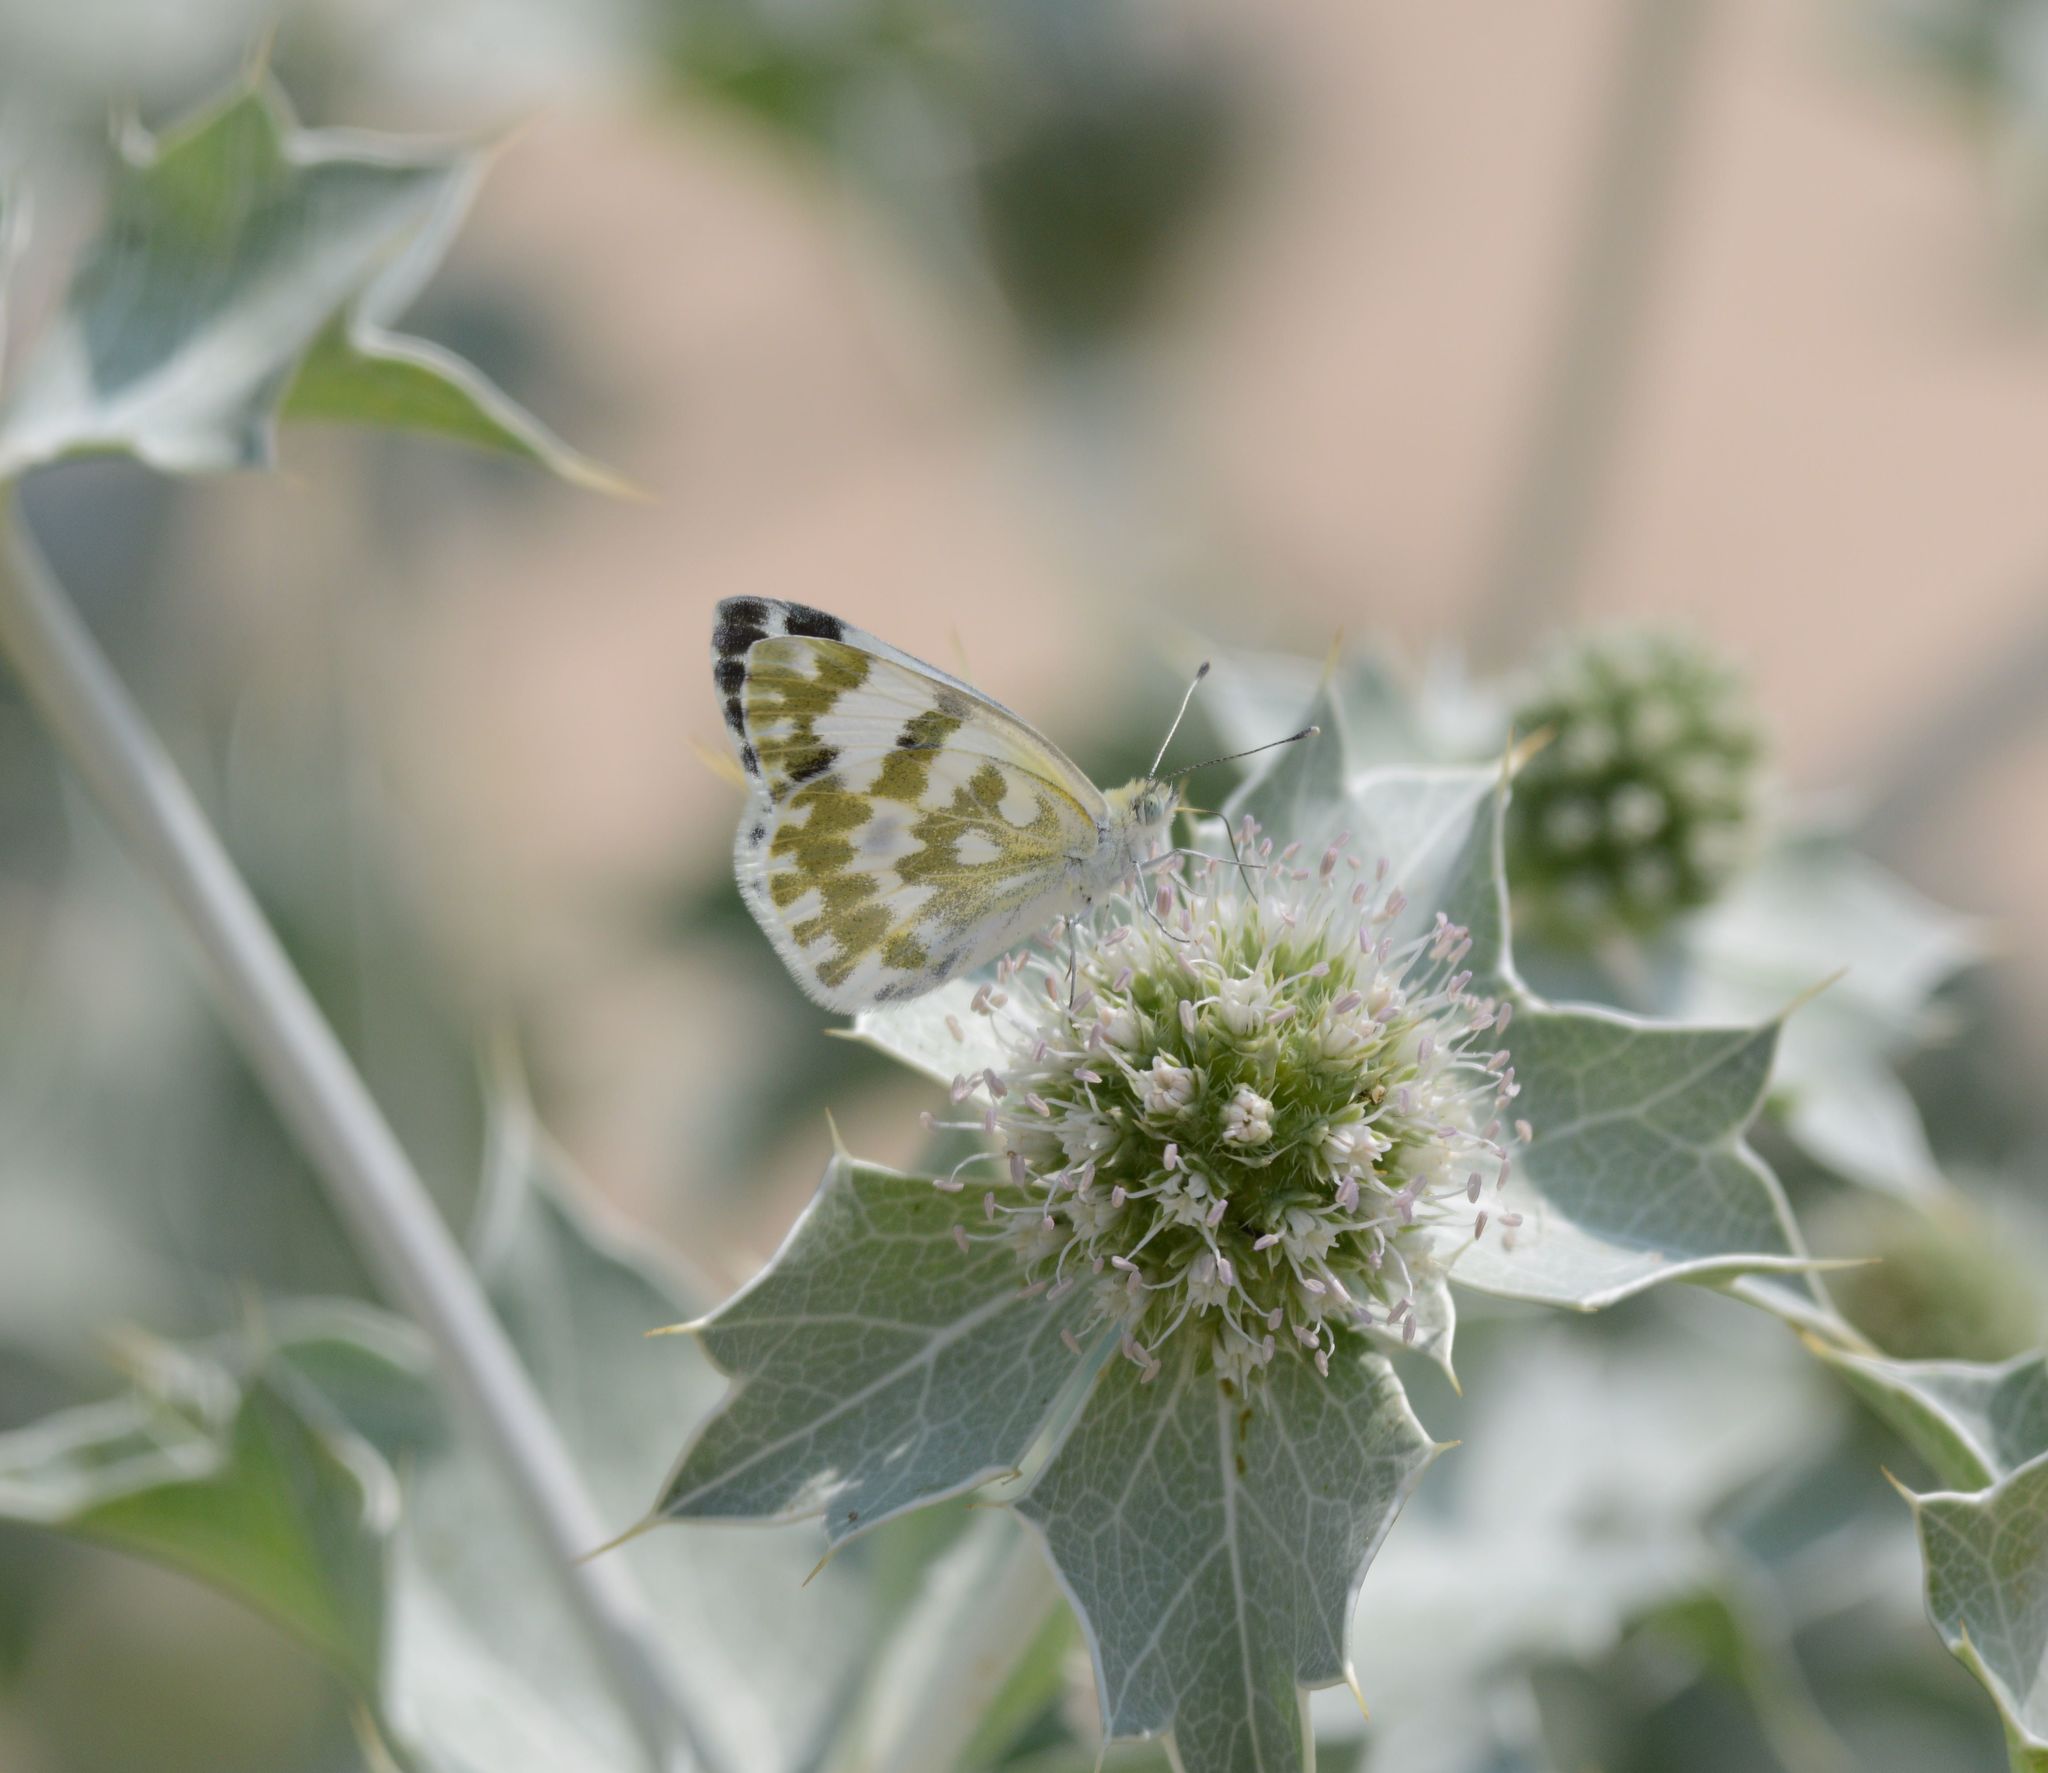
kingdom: Animalia
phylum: Arthropoda
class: Insecta
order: Lepidoptera
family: Pieridae
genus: Pontia
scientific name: Pontia edusa
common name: Eastern bath white
